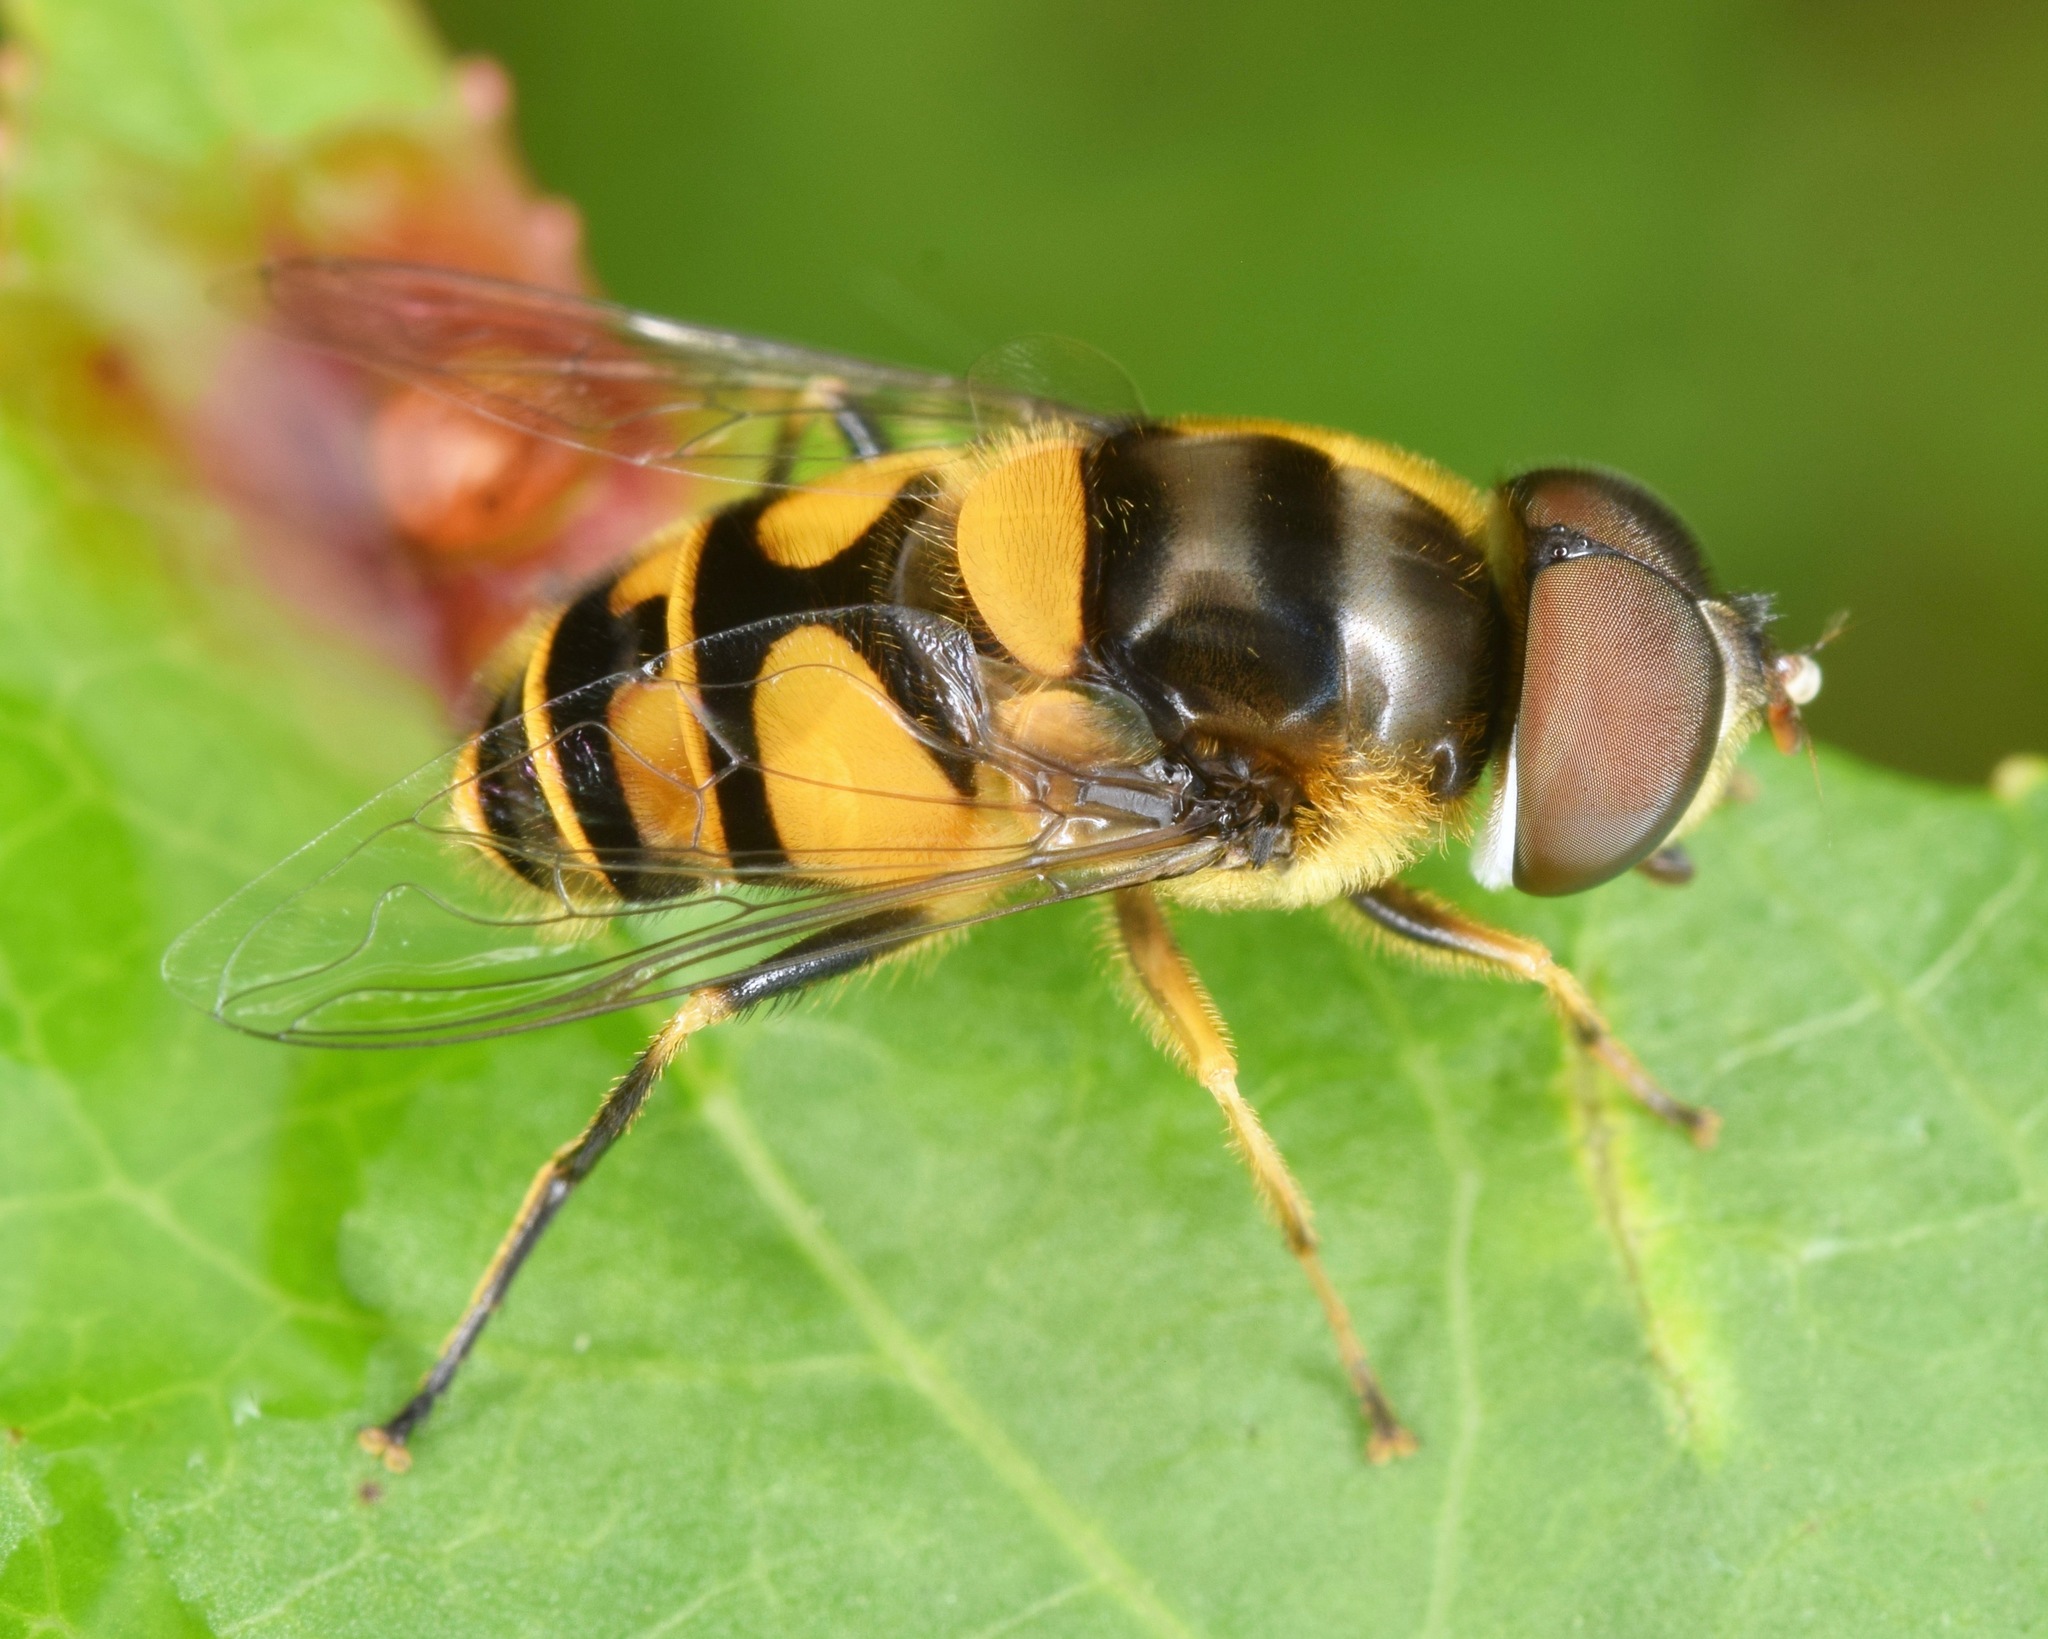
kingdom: Animalia
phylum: Arthropoda
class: Insecta
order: Diptera
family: Syrphidae
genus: Eristalis
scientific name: Eristalis transversa
